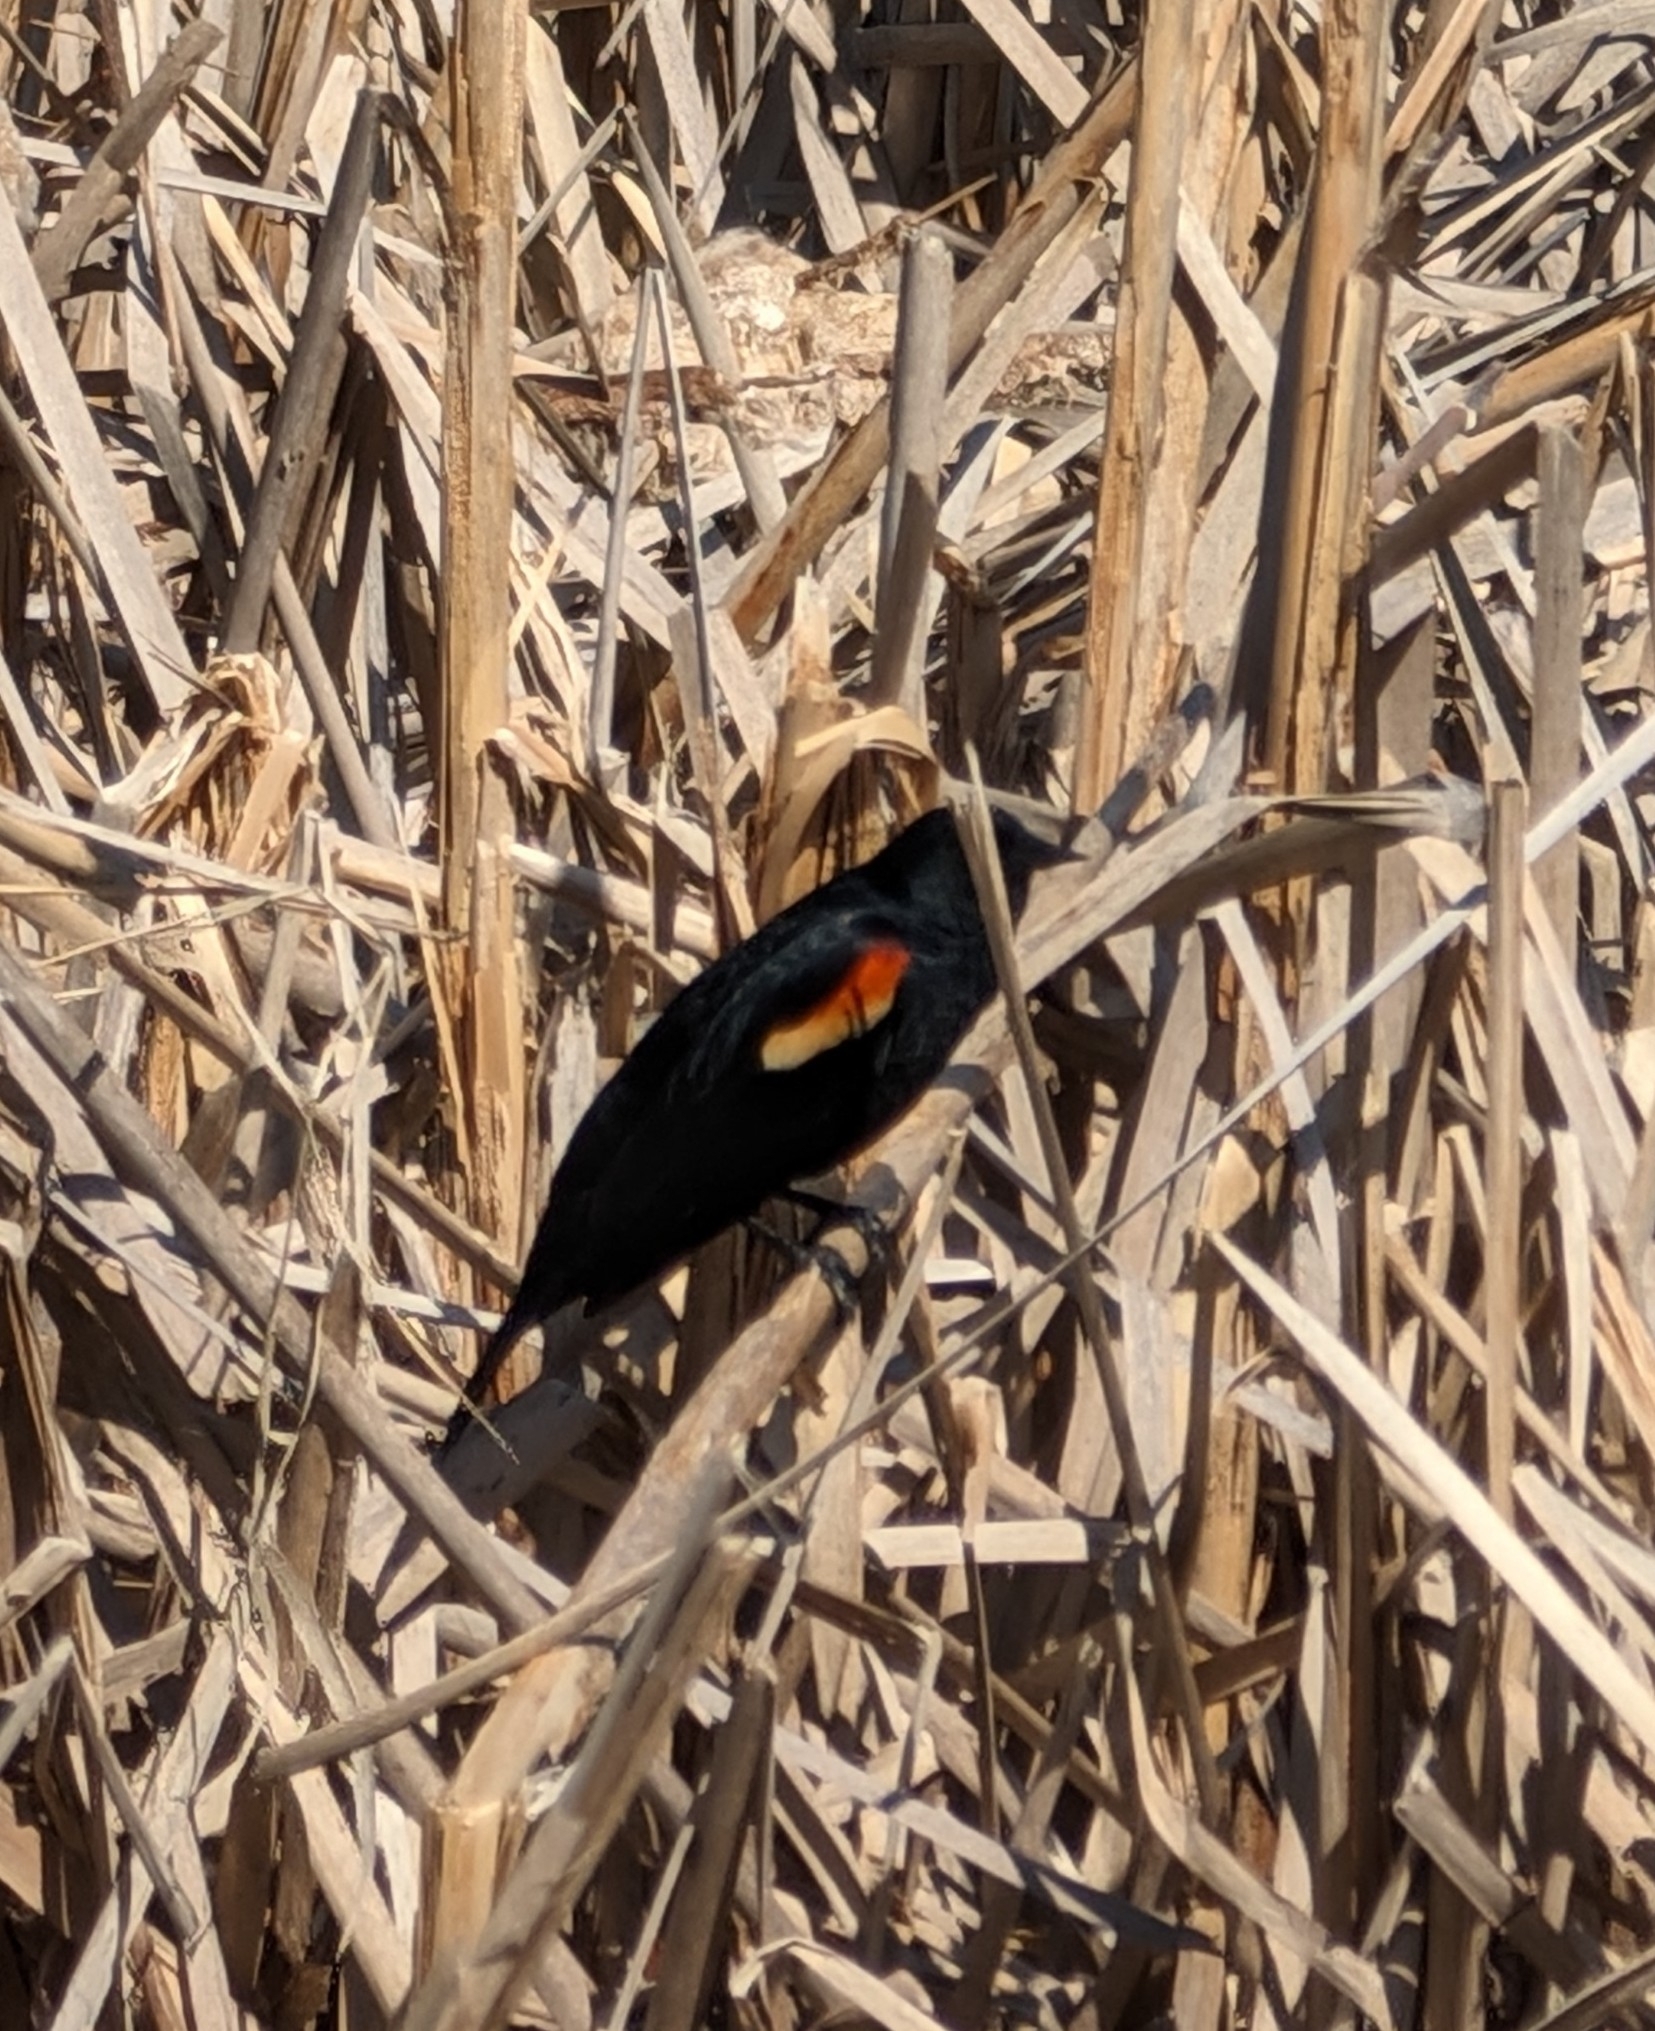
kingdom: Animalia
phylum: Chordata
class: Aves
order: Passeriformes
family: Icteridae
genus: Agelaius
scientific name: Agelaius phoeniceus
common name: Red-winged blackbird
